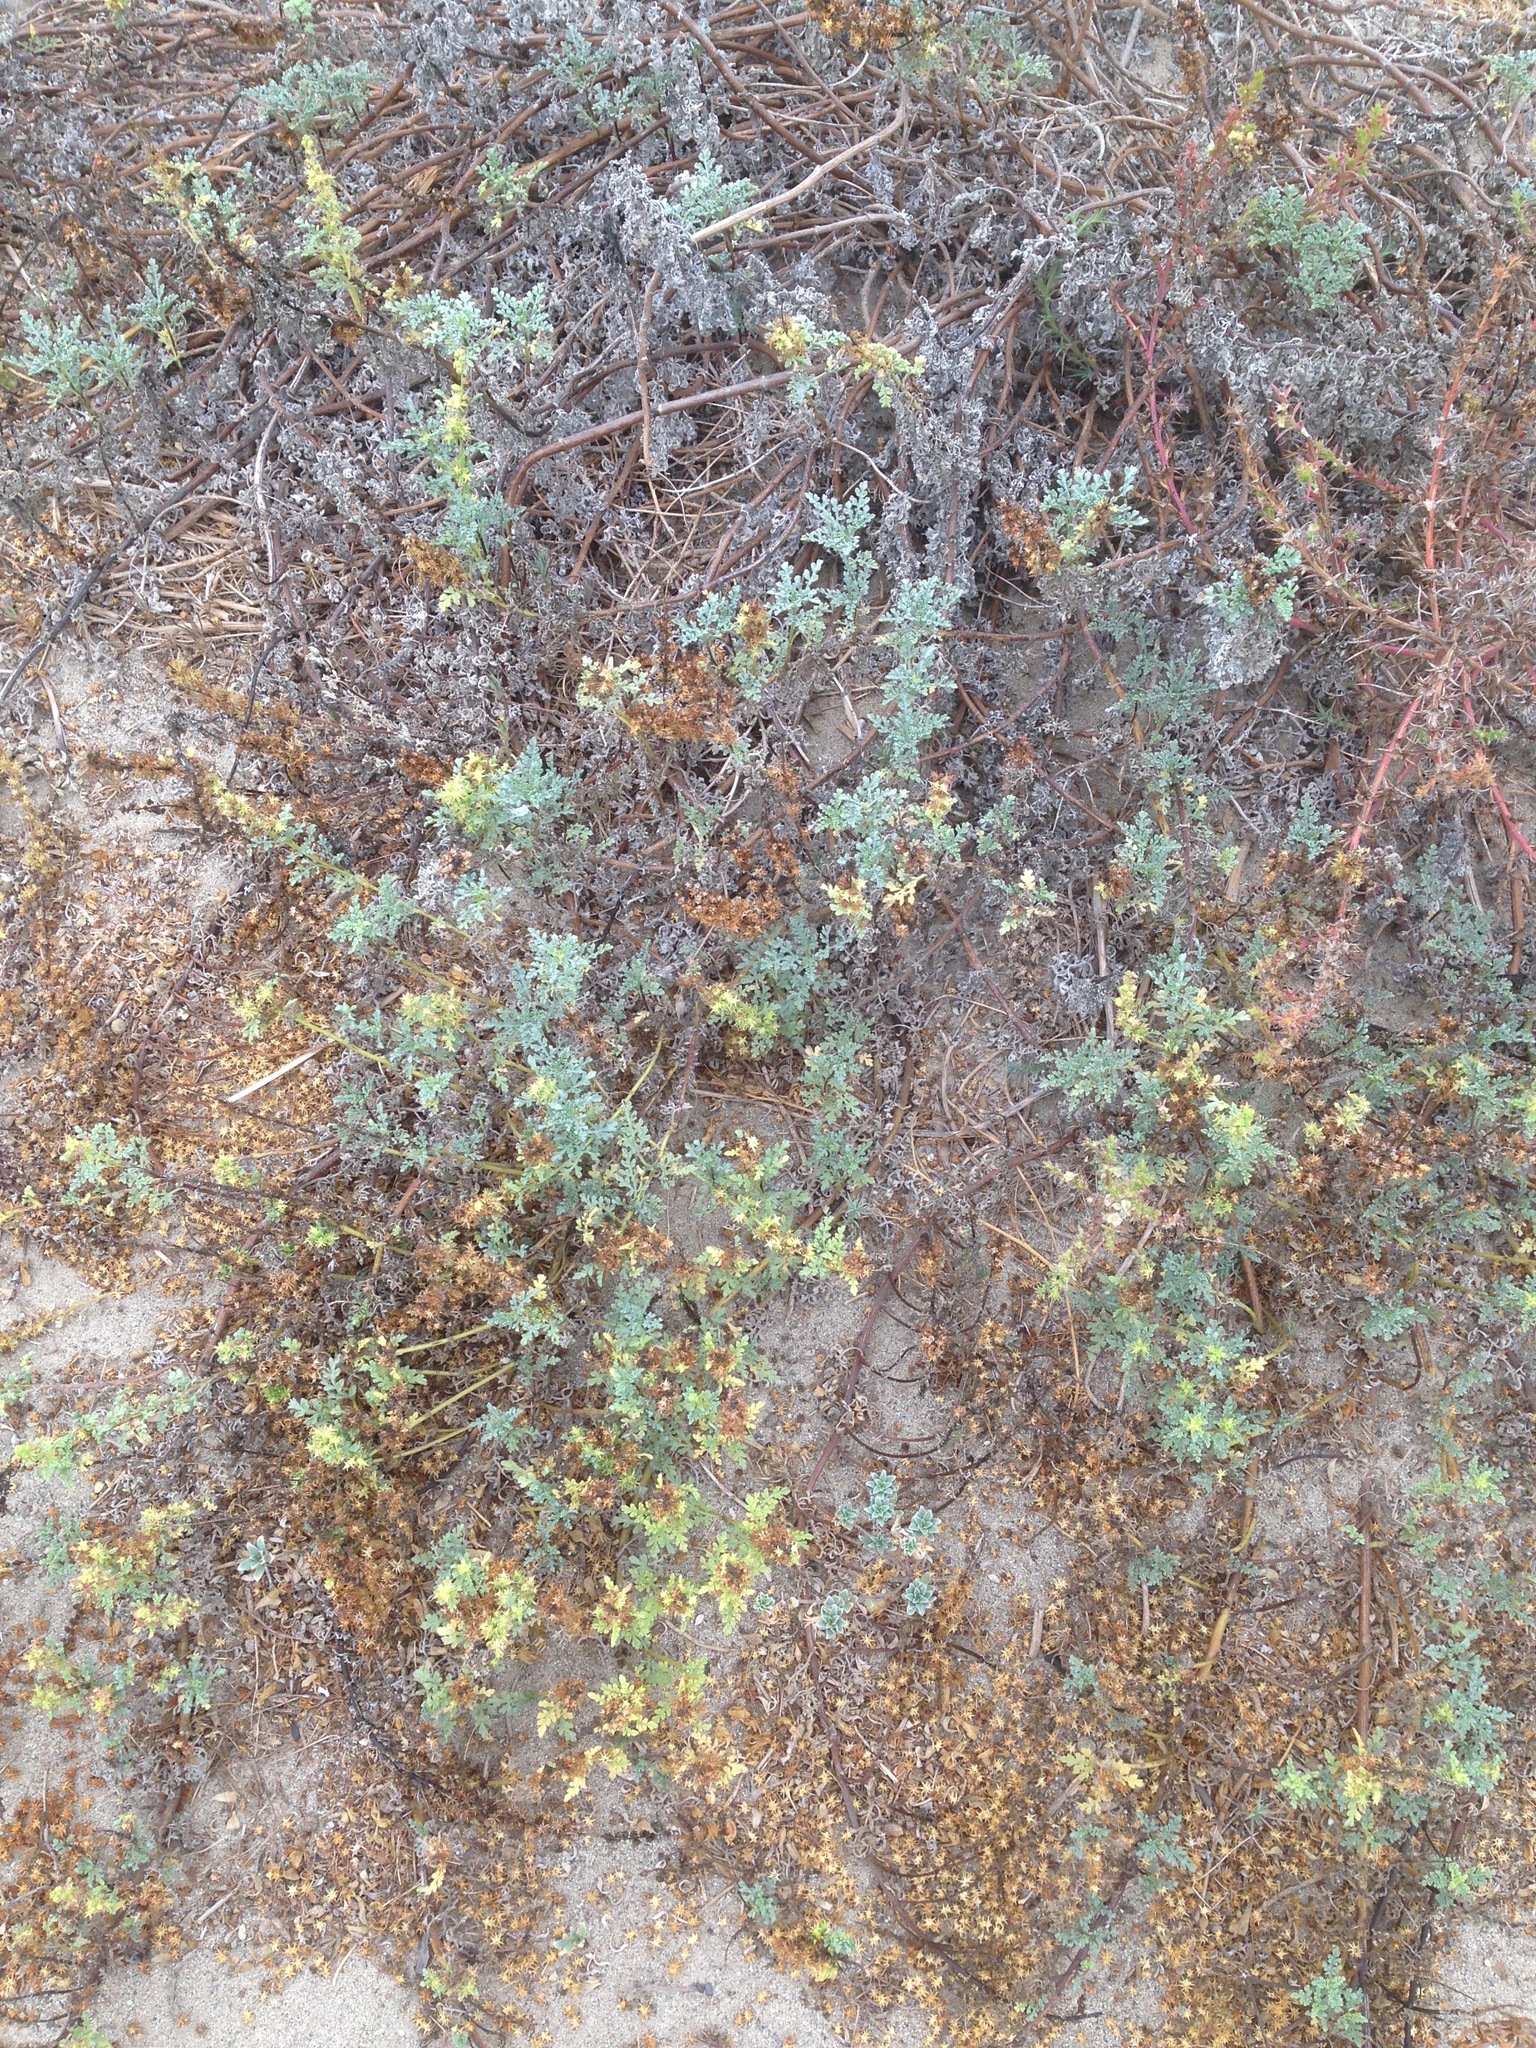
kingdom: Plantae
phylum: Tracheophyta
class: Magnoliopsida
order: Asterales
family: Asteraceae
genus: Ambrosia
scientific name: Ambrosia chamissonis
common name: Beachbur
